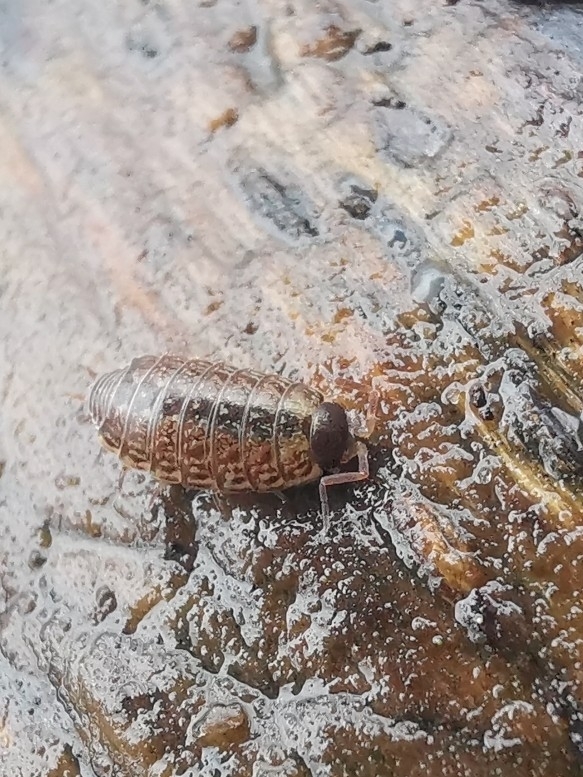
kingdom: Animalia
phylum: Arthropoda
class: Malacostraca
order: Isopoda
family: Philosciidae
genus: Philoscia
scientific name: Philoscia muscorum
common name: Common striped woodlouse
